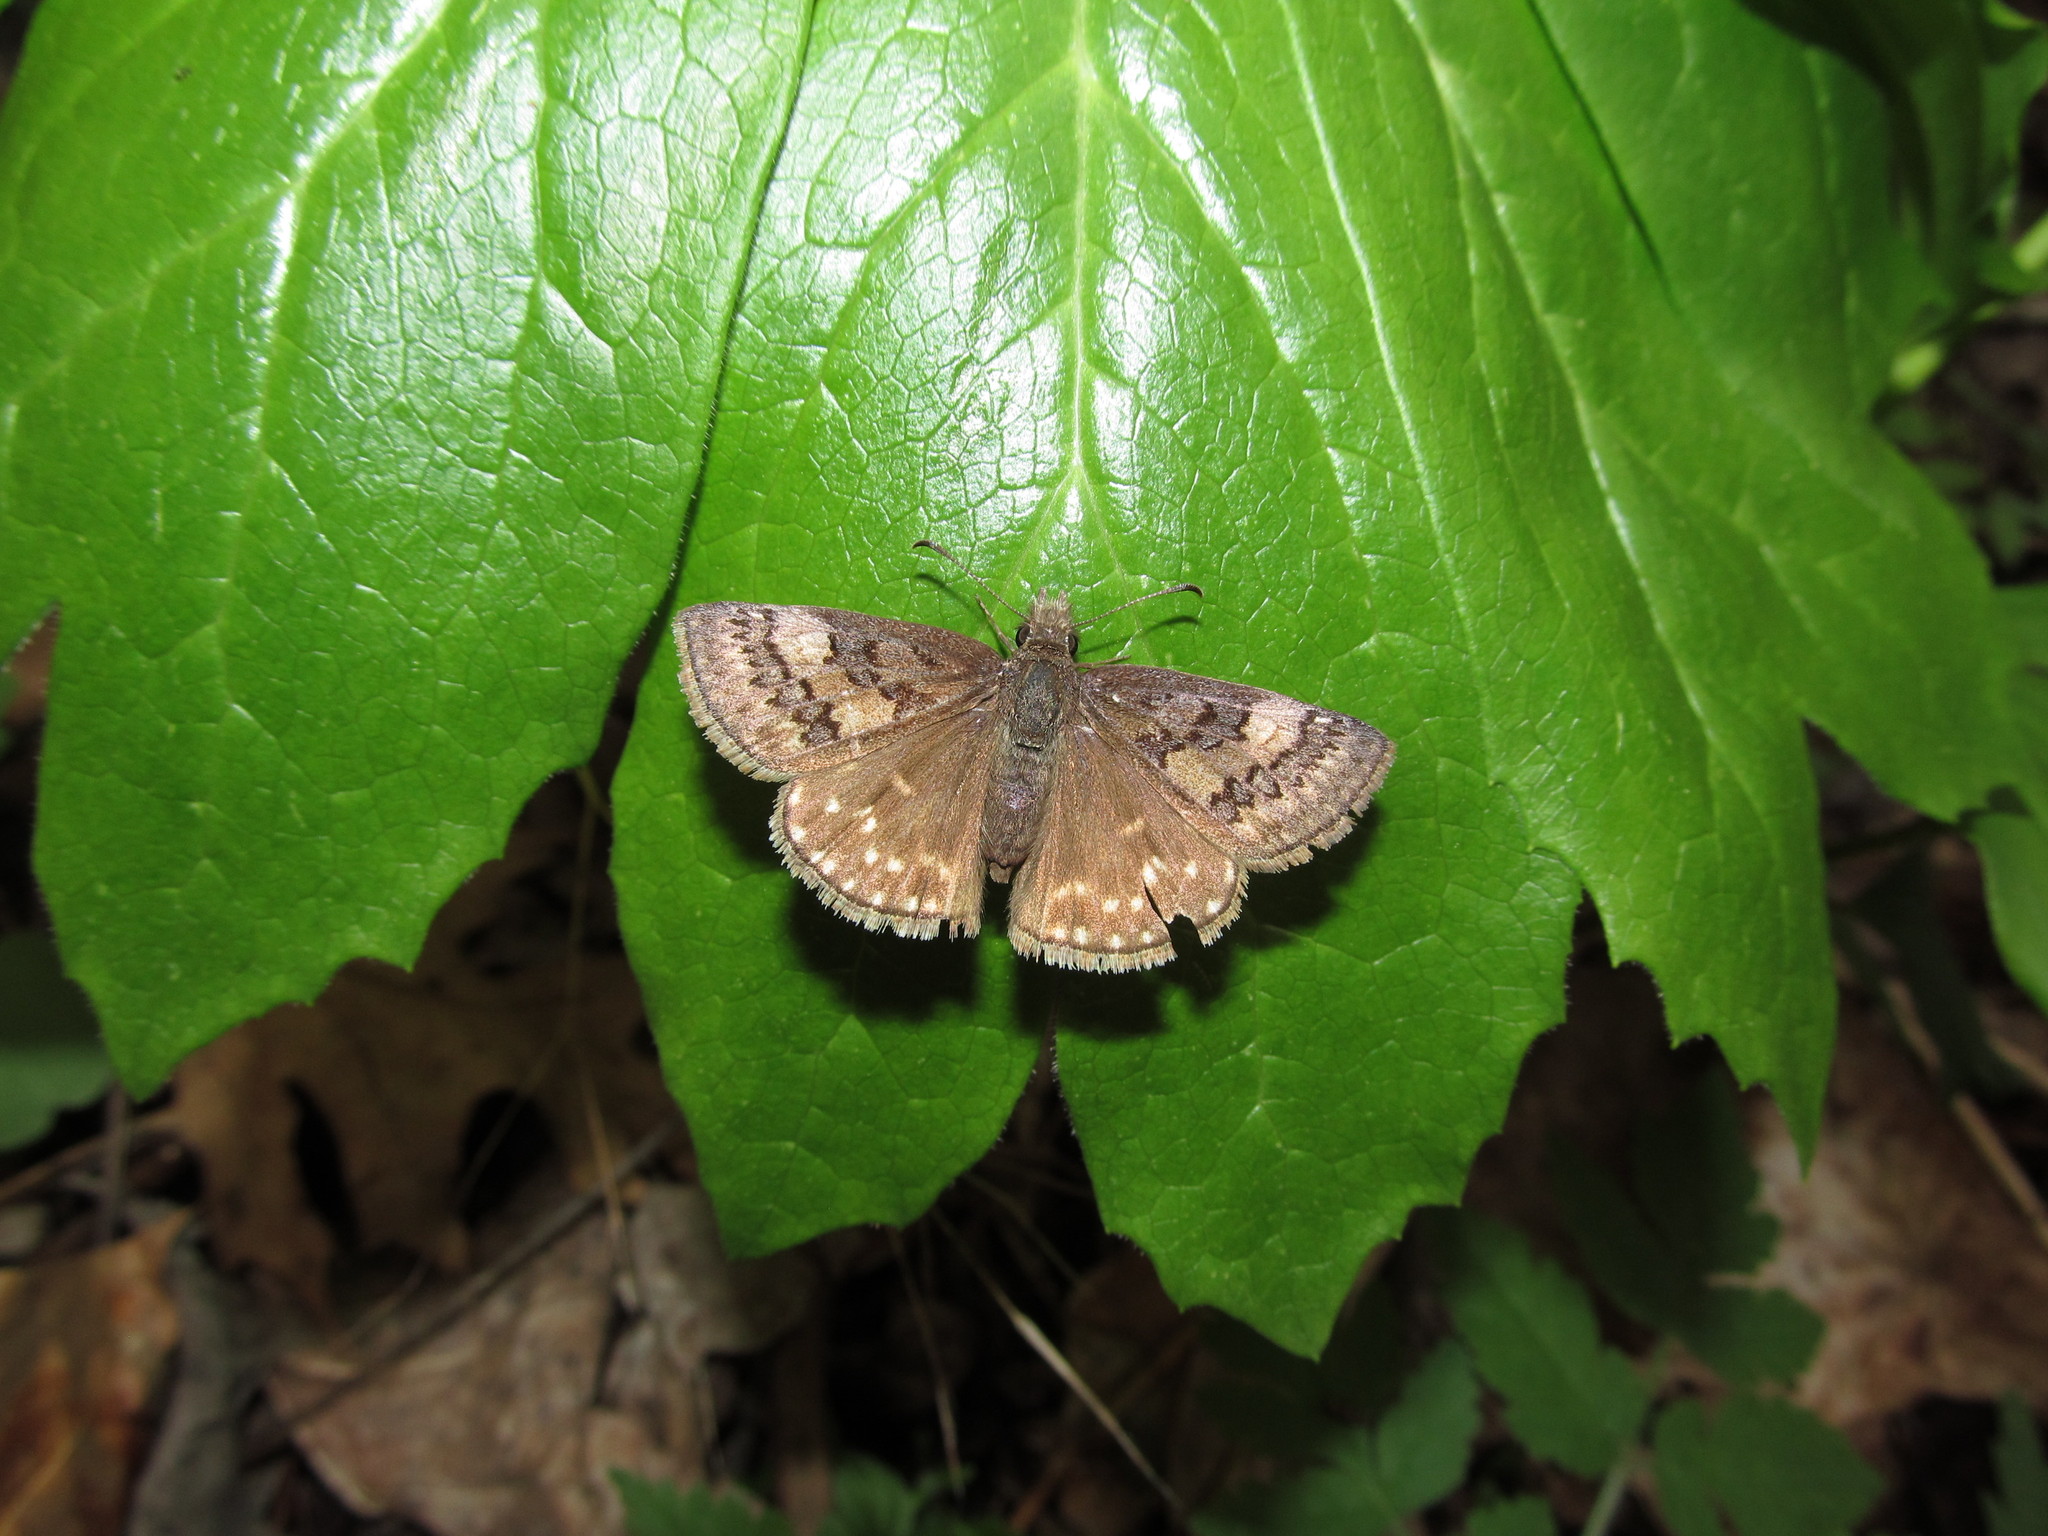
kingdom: Animalia
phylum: Arthropoda
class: Insecta
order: Lepidoptera
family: Hesperiidae
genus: Erynnis
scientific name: Erynnis icelus
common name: Dreamy duskywing
